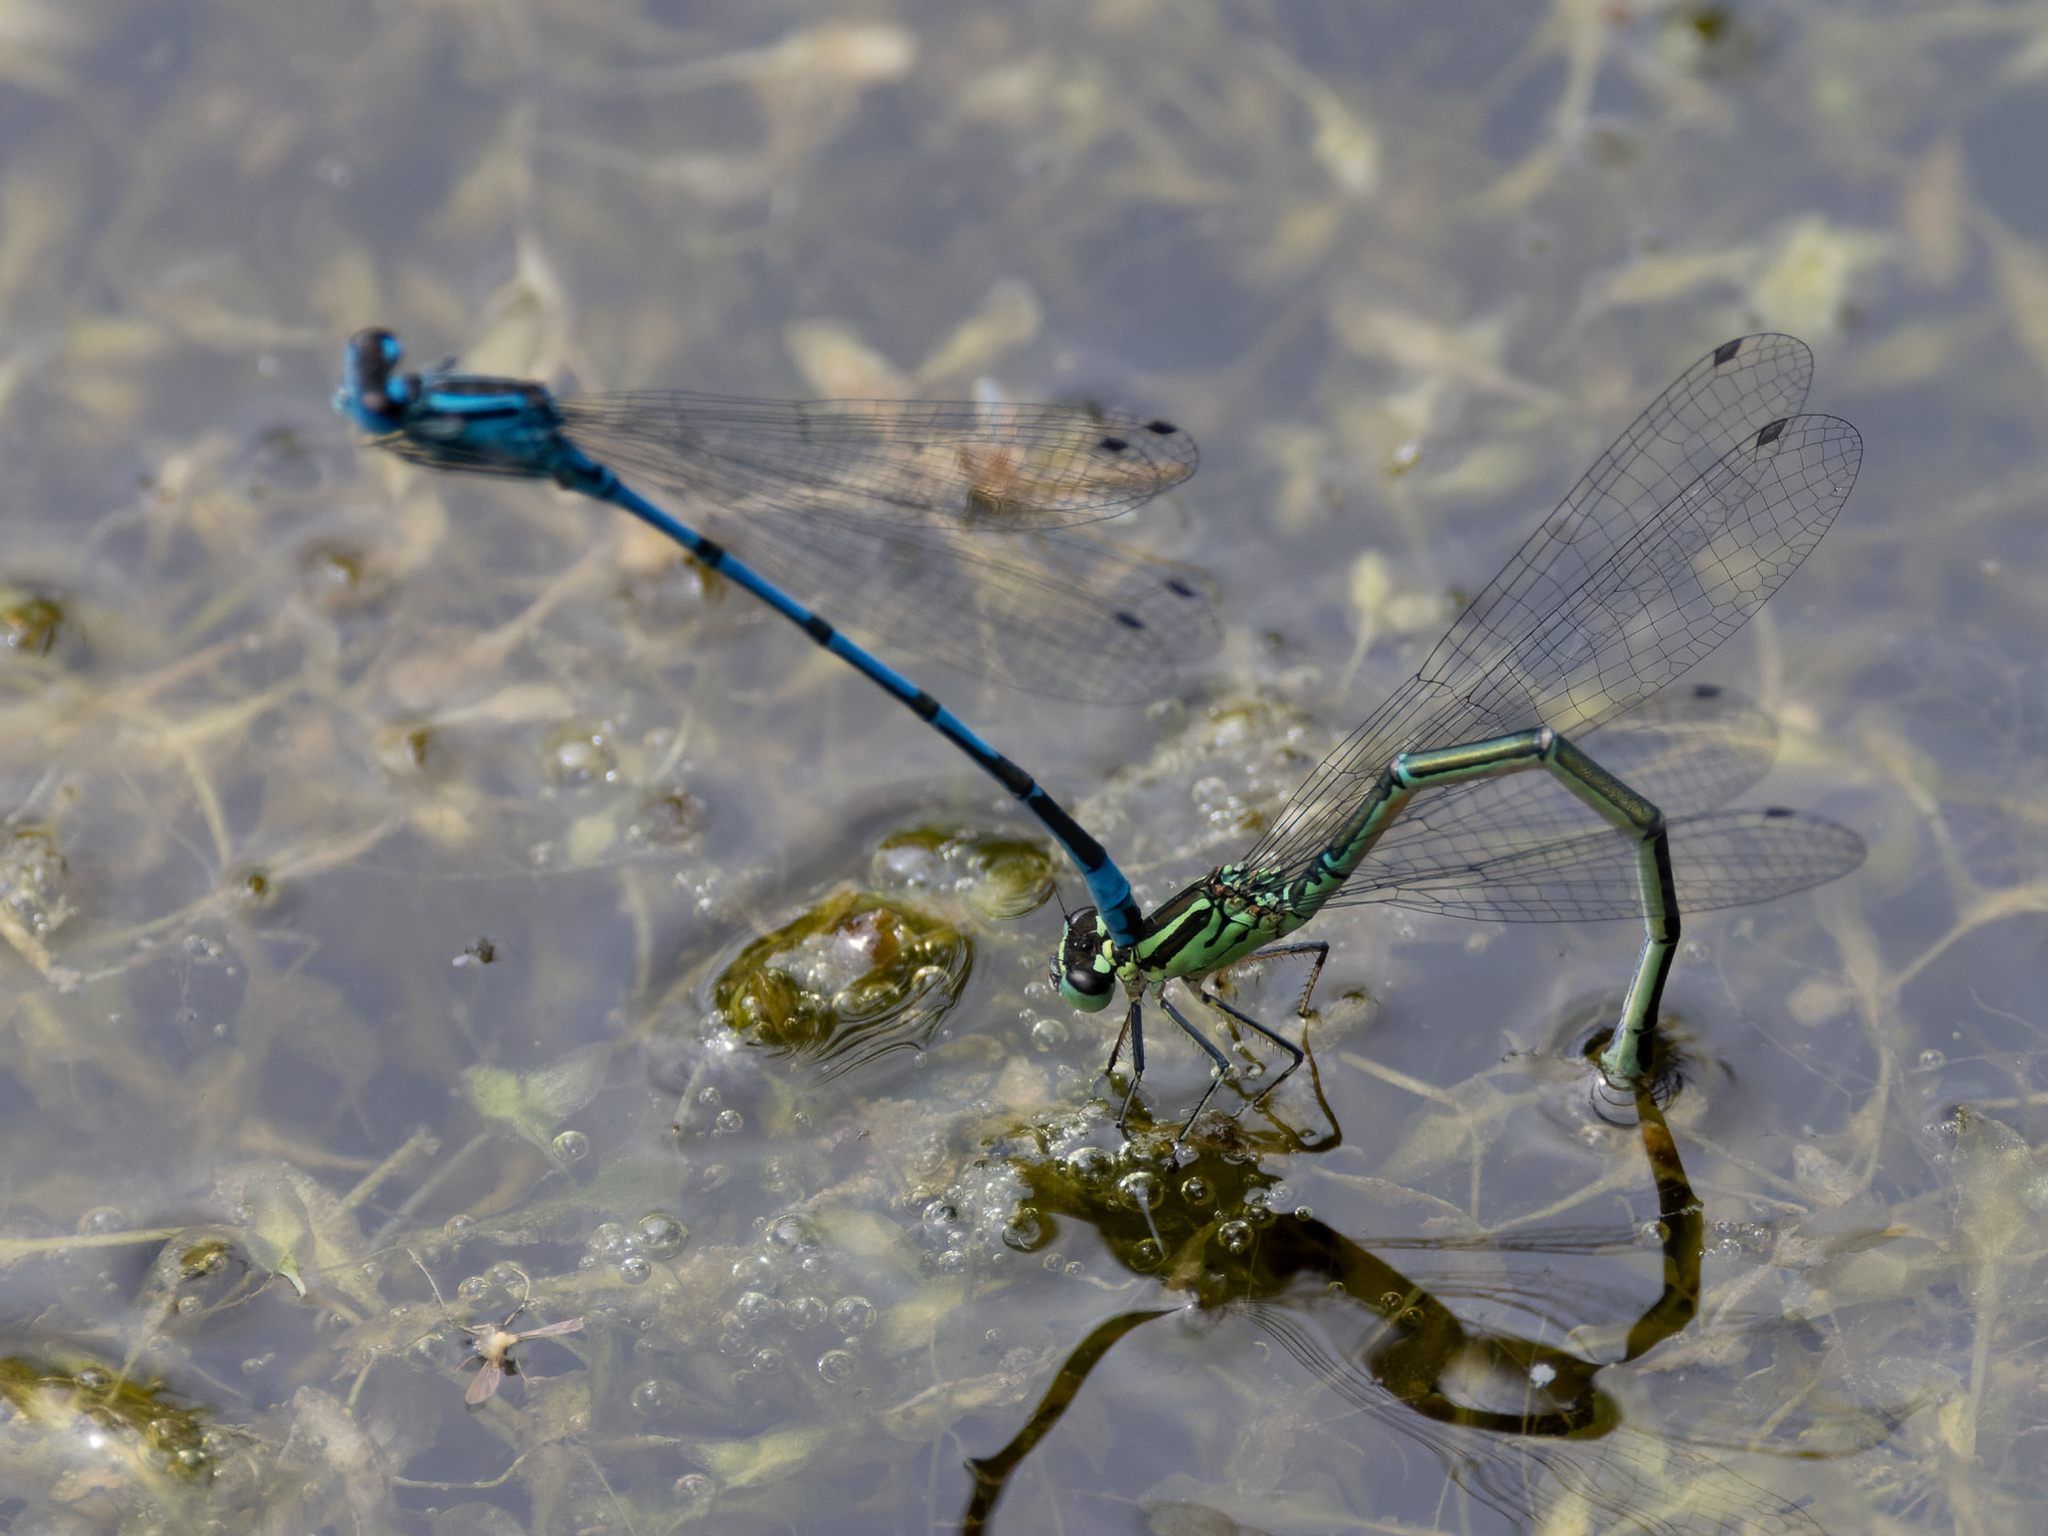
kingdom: Animalia
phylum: Arthropoda
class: Insecta
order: Odonata
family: Coenagrionidae
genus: Coenagrion
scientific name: Coenagrion puella
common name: Azure damselfly
